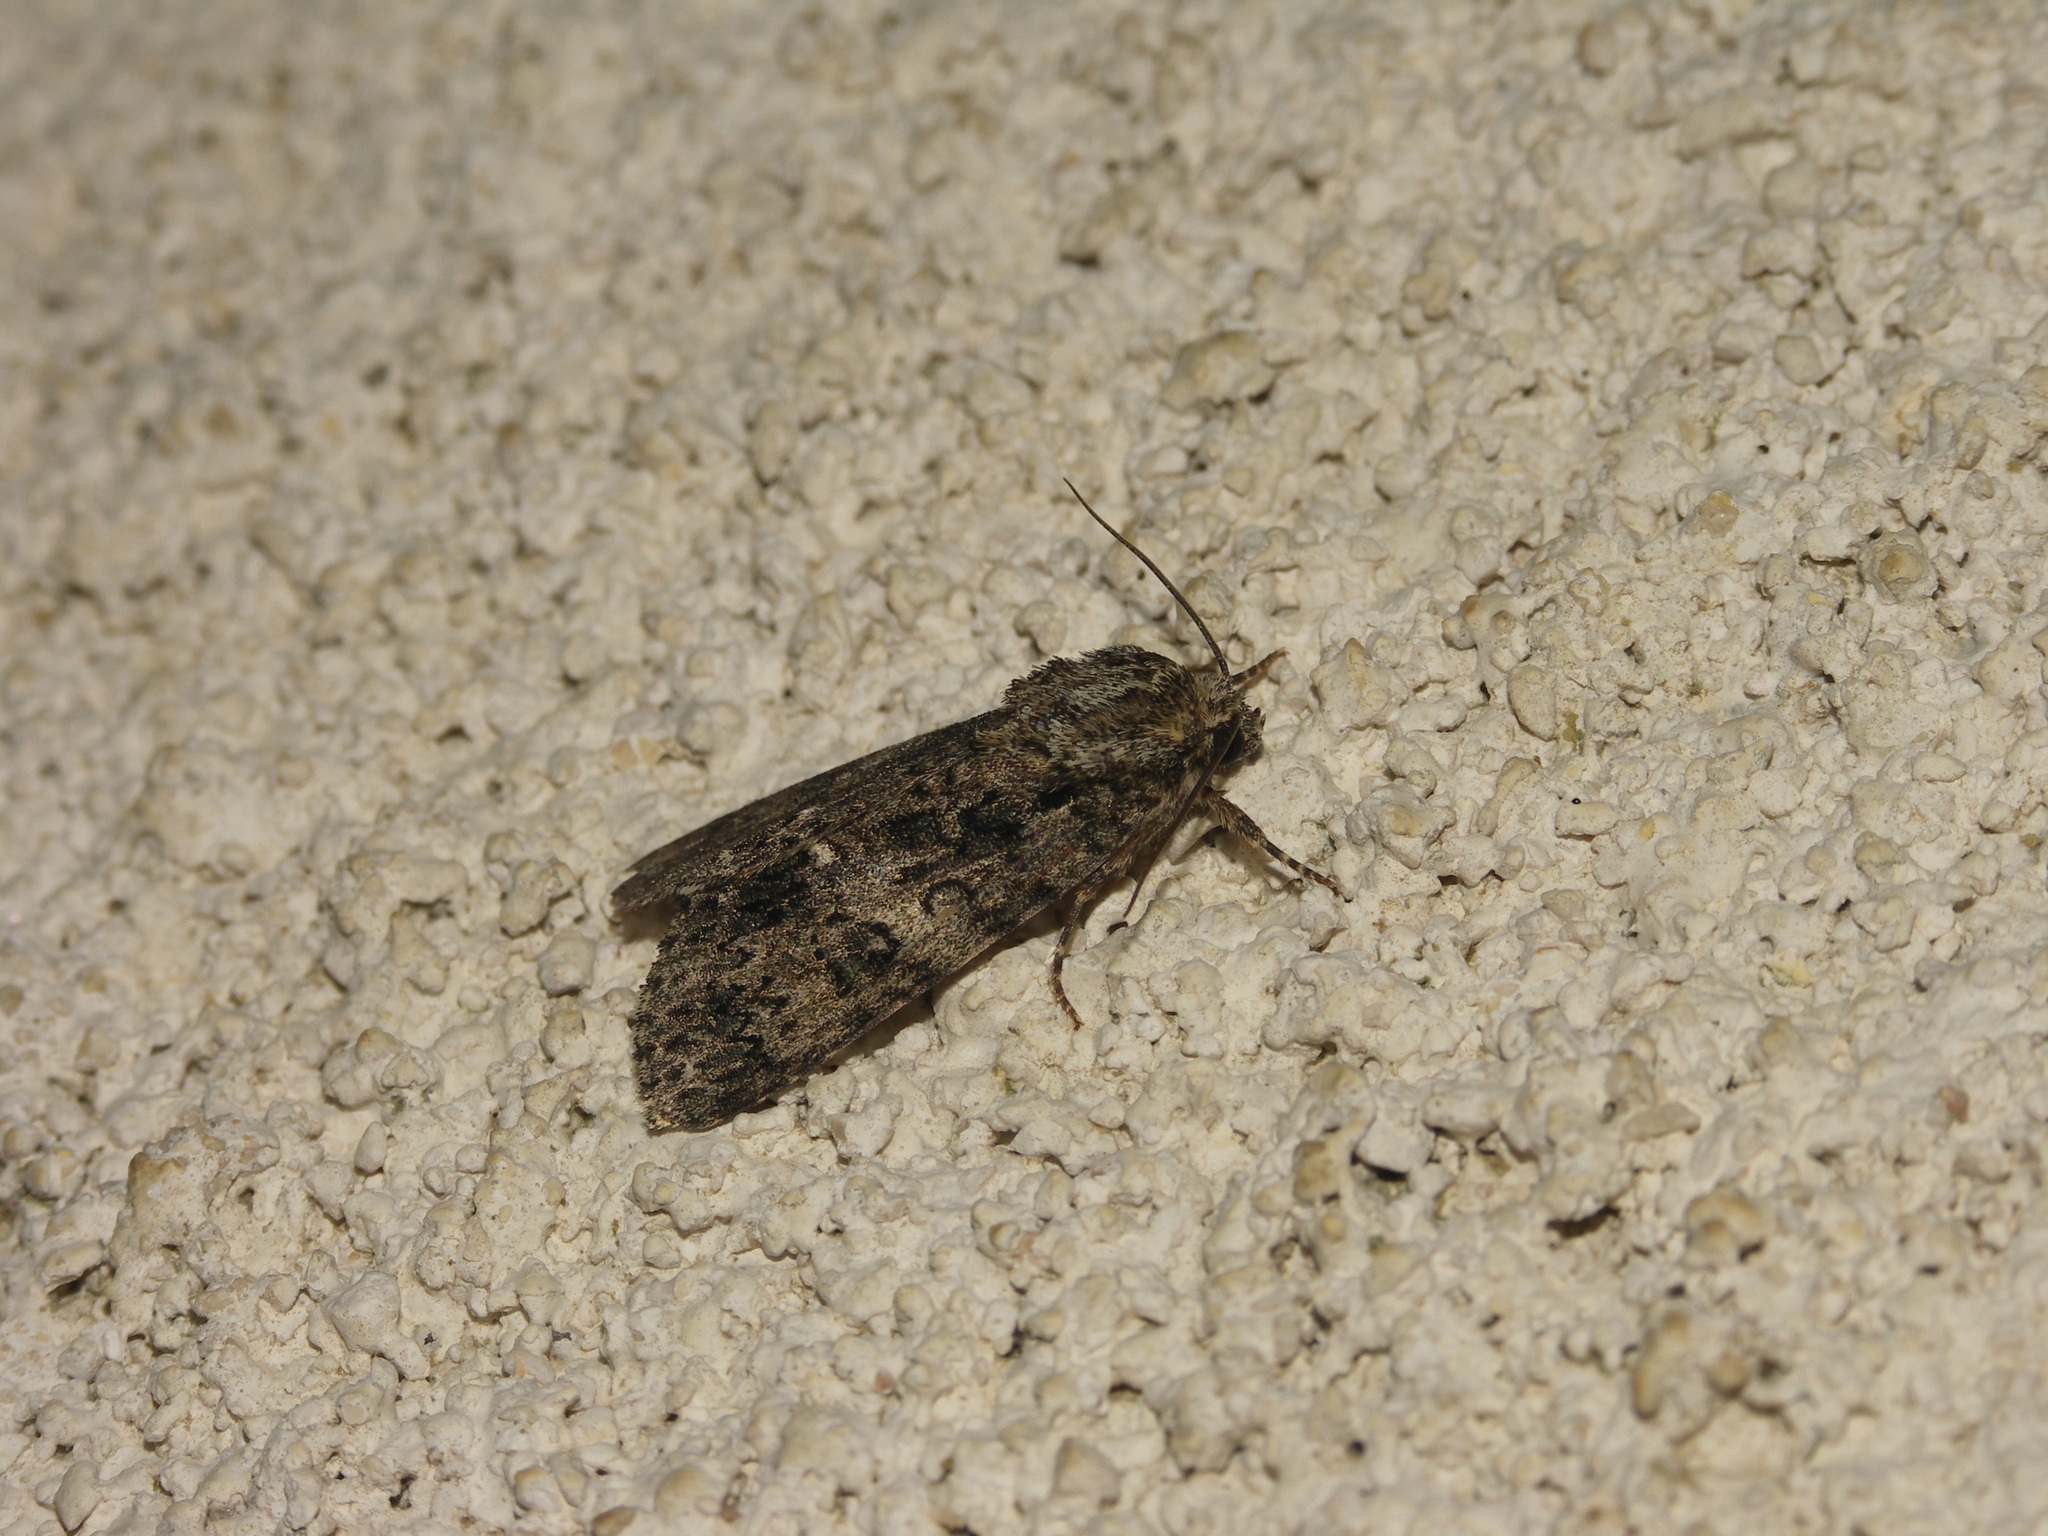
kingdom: Animalia
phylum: Arthropoda
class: Insecta
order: Lepidoptera
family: Noctuidae
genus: Acronicta
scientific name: Acronicta rumicis
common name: Knot grass
